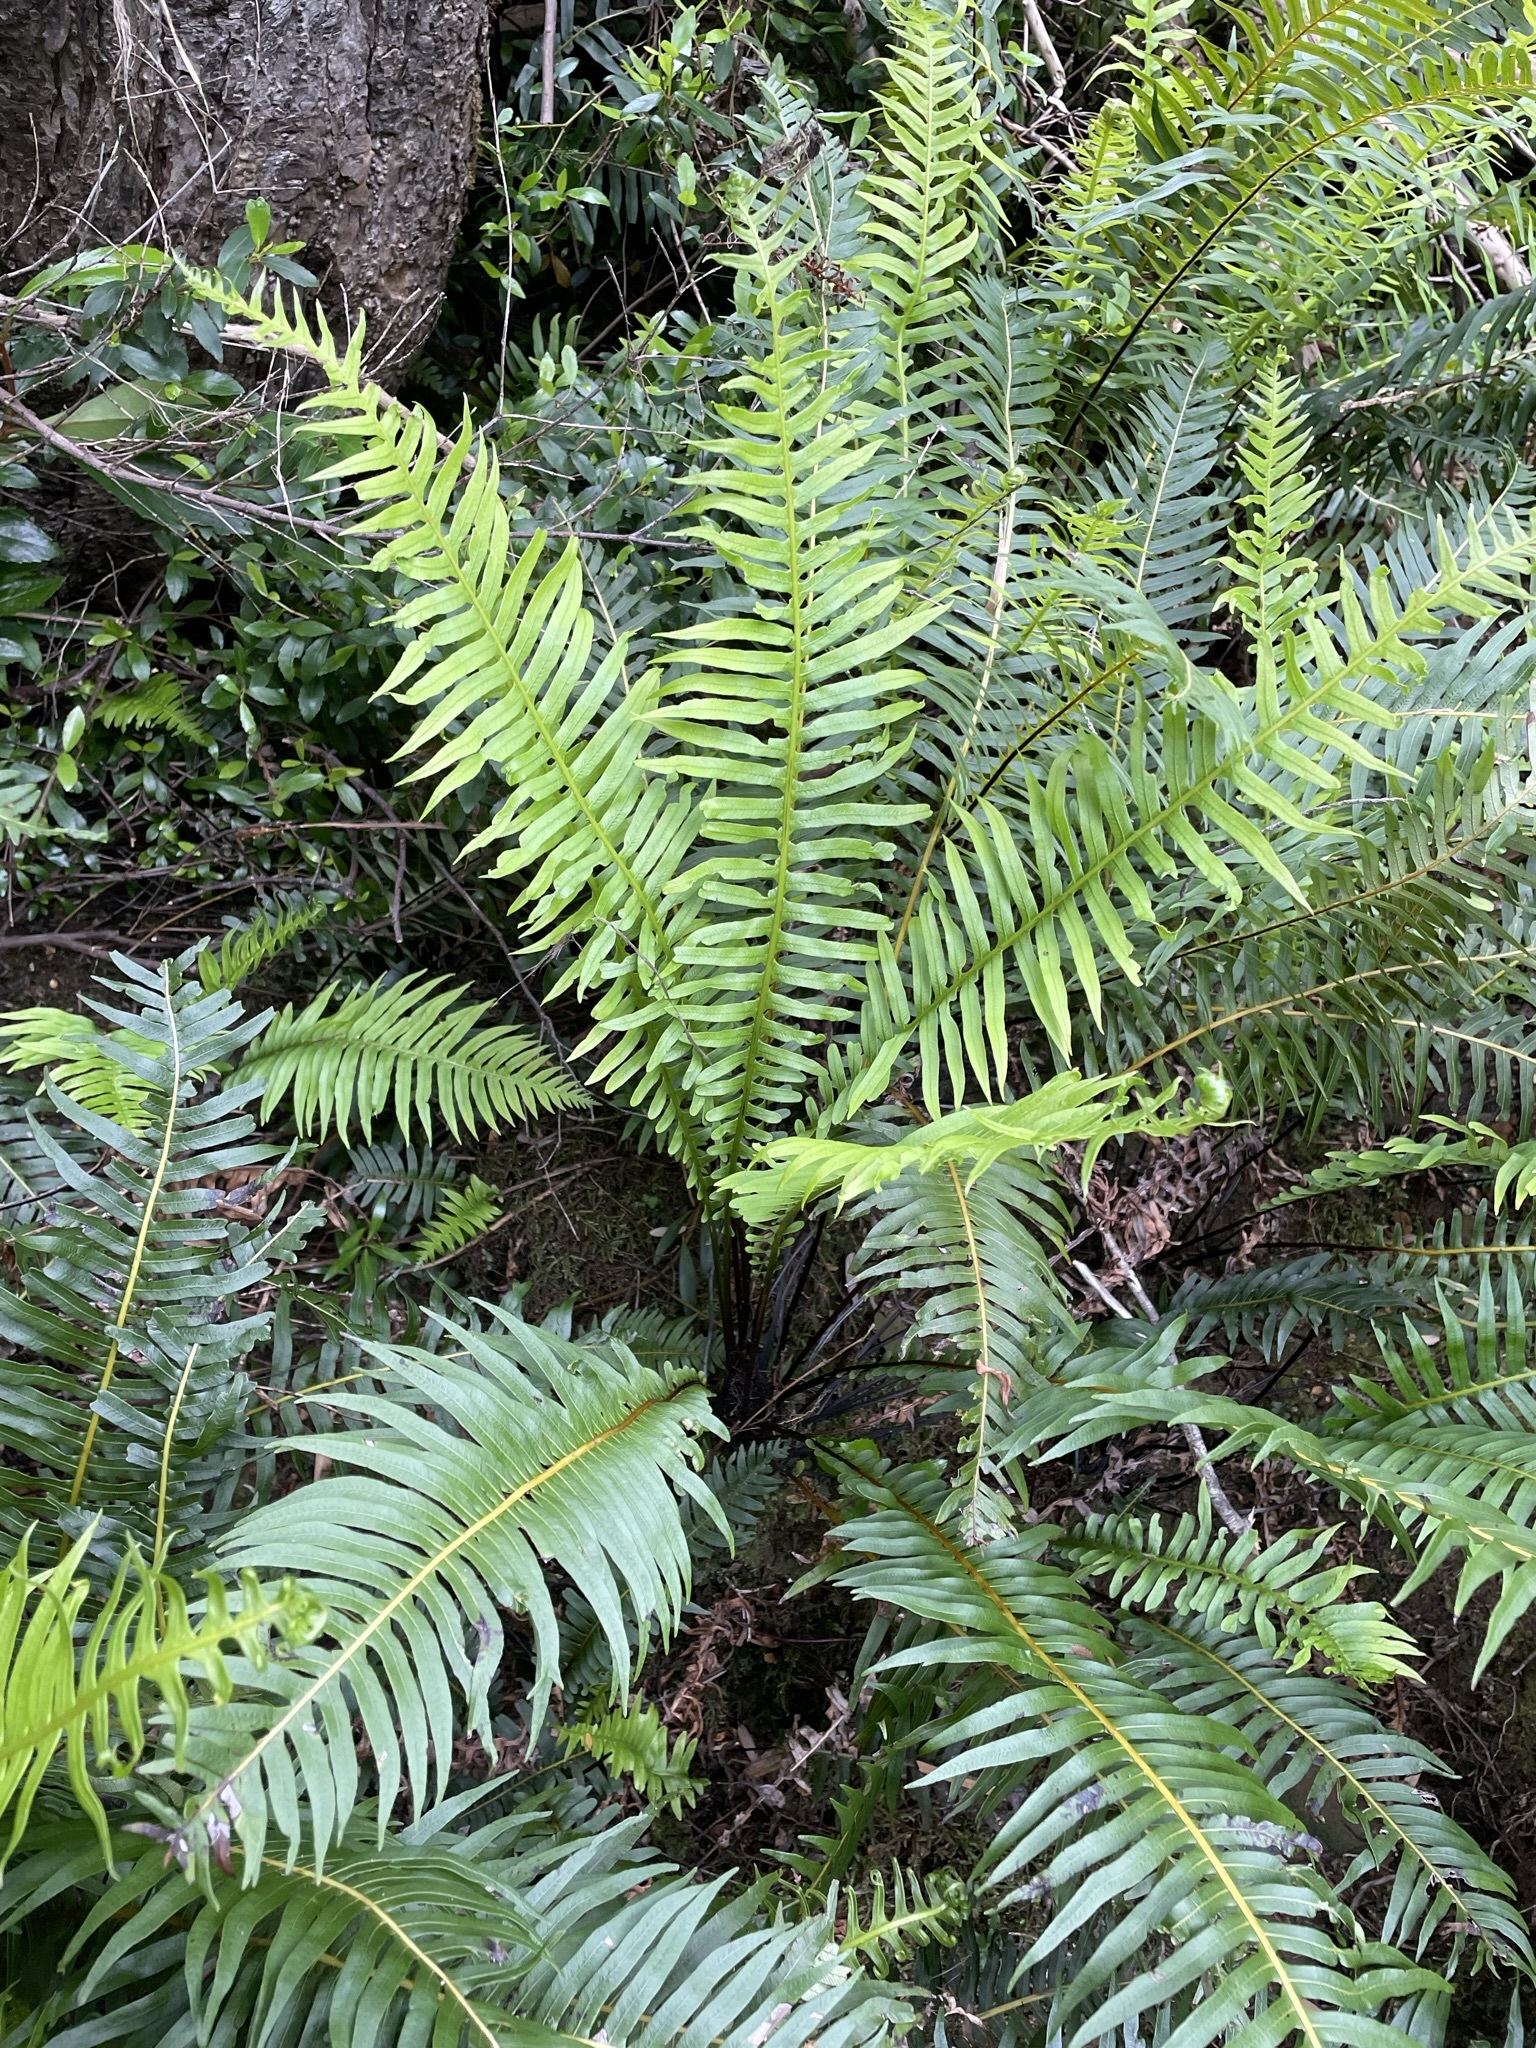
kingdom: Plantae
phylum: Tracheophyta
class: Polypodiopsida
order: Polypodiales
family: Blechnaceae
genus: Lomaria
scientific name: Lomaria nuda
